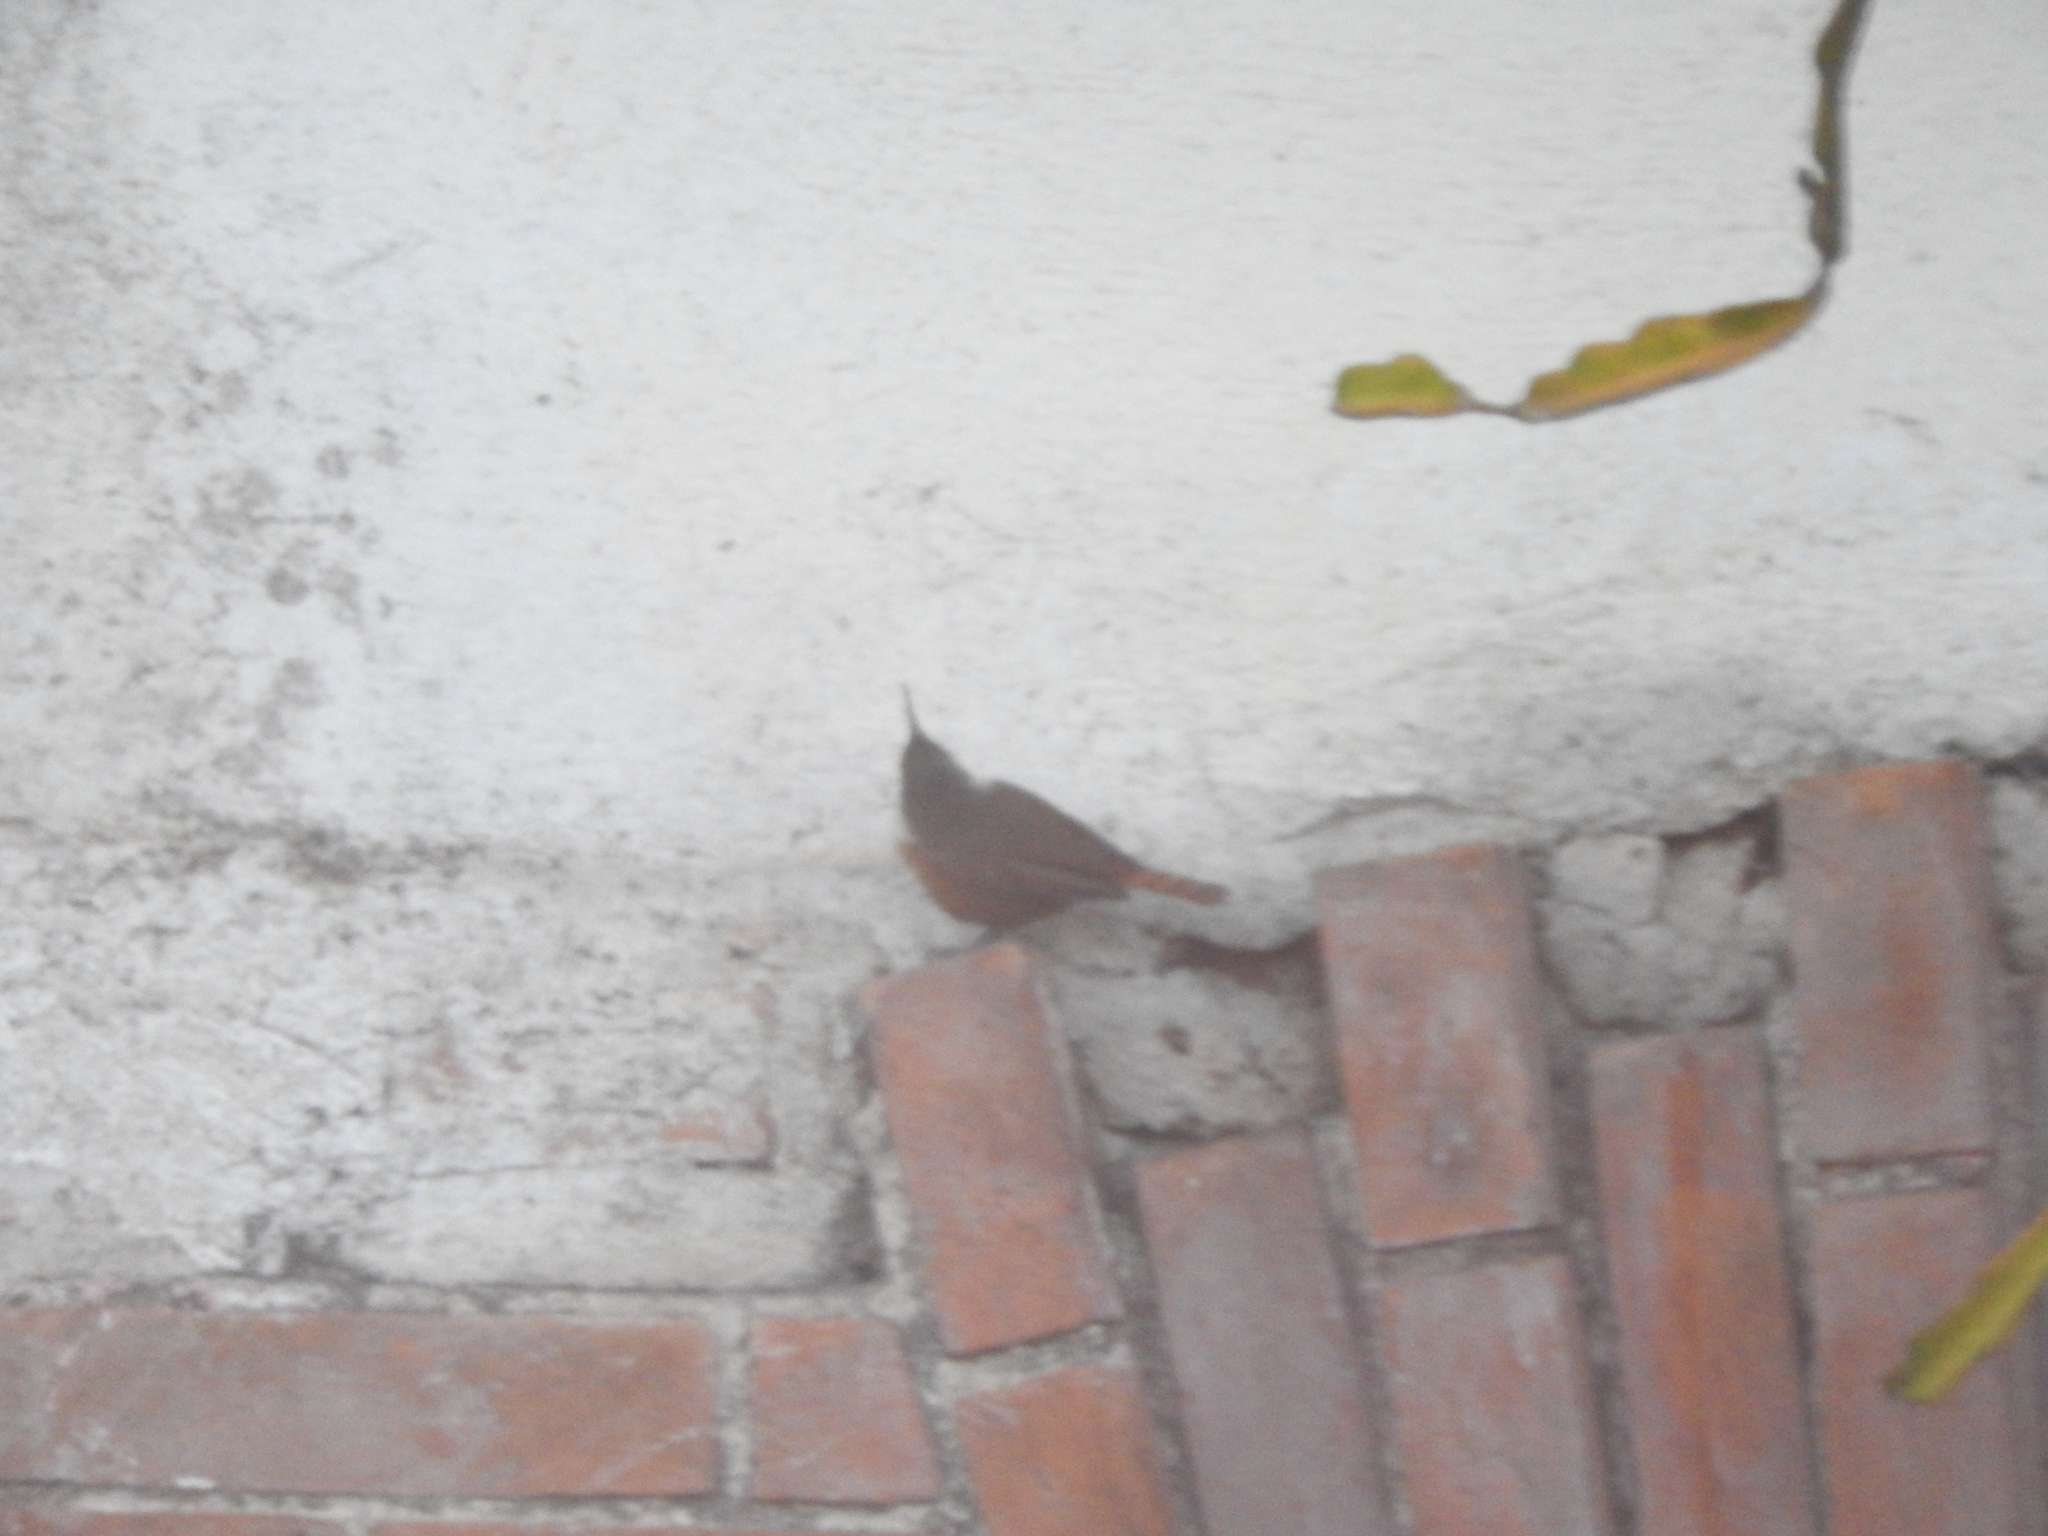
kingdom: Animalia
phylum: Chordata
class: Aves
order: Passeriformes
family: Troglodytidae
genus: Catherpes
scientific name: Catherpes mexicanus
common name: Canyon wren
